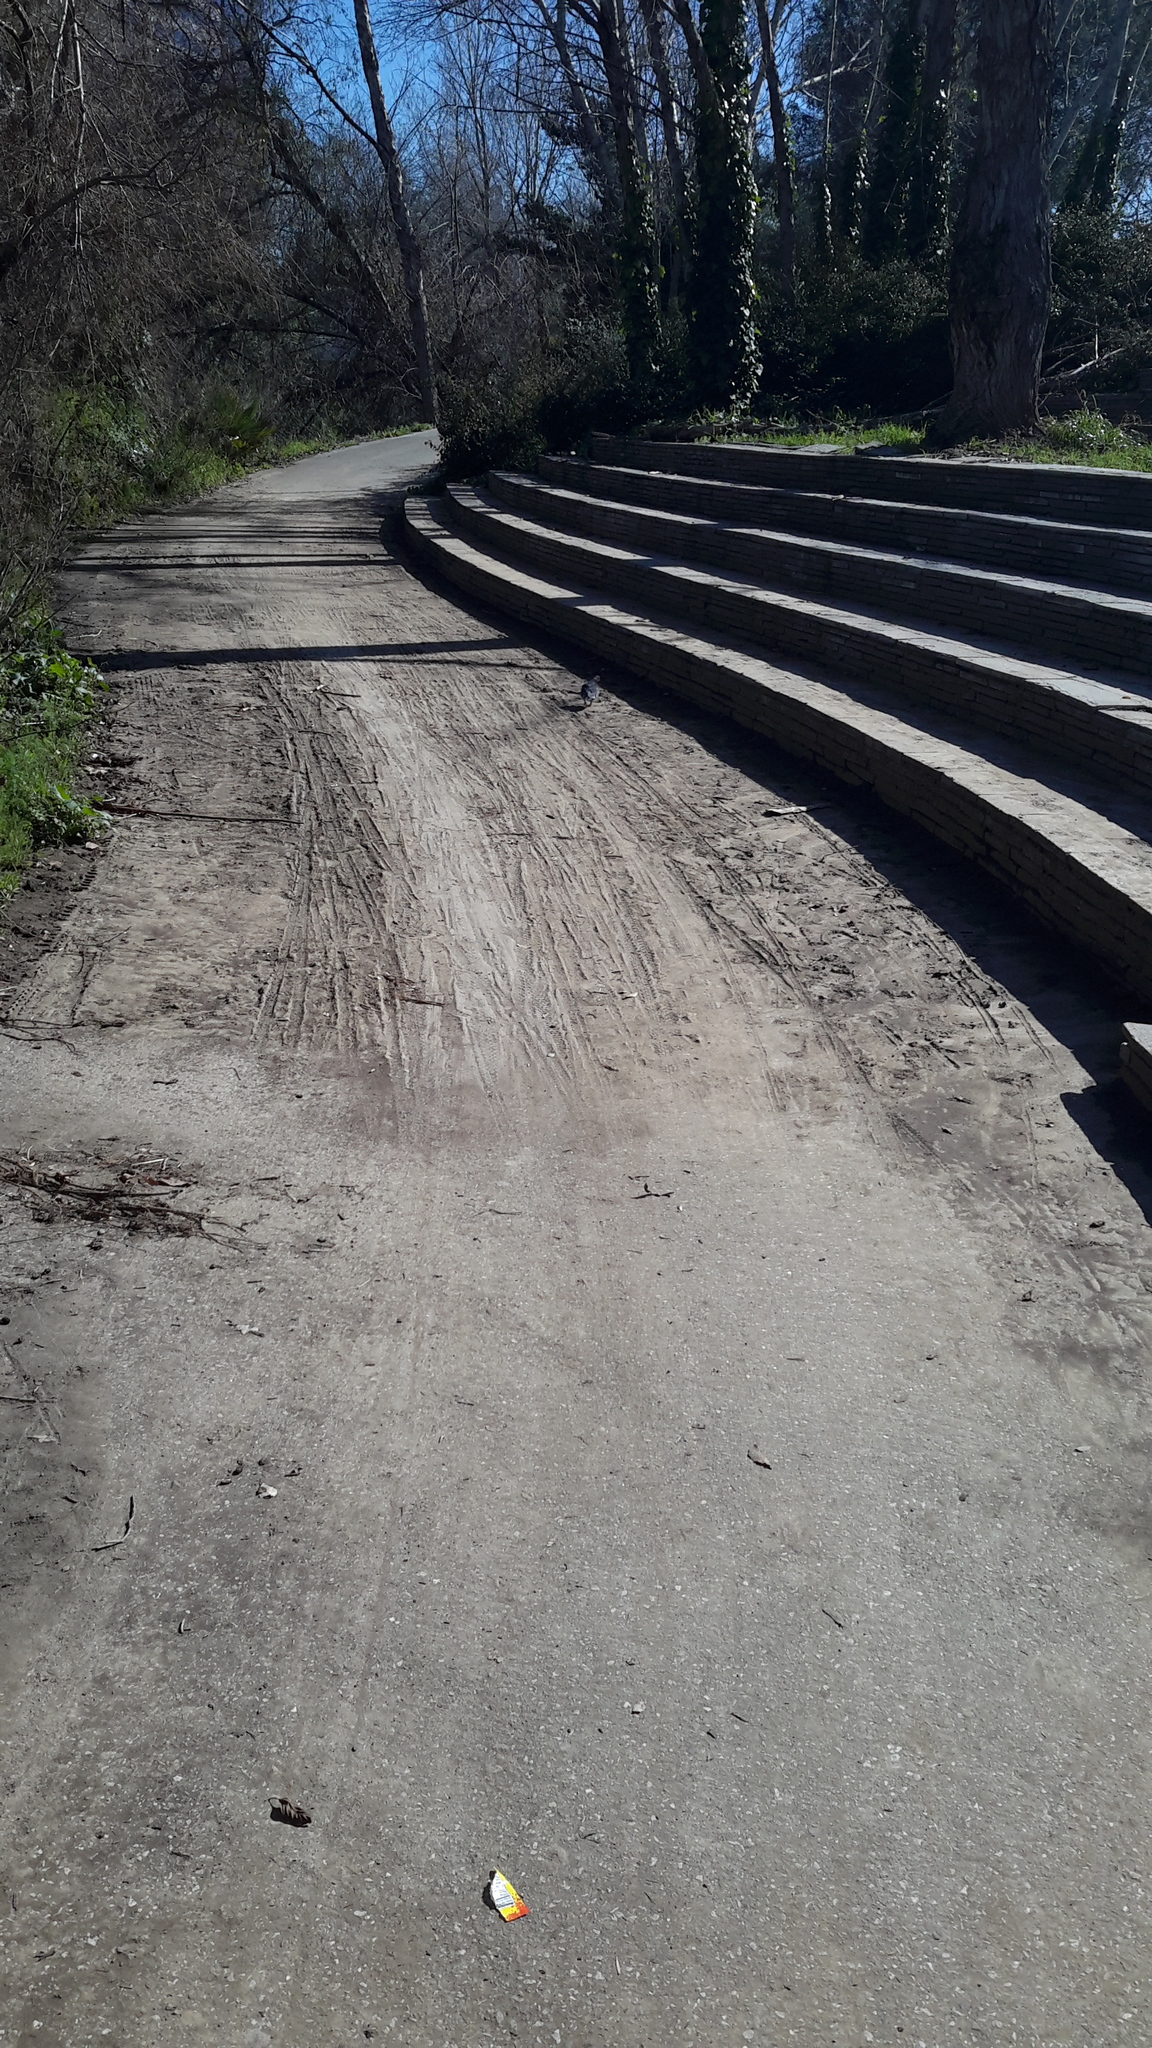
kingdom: Animalia
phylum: Chordata
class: Aves
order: Columbiformes
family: Columbidae
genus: Columba
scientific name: Columba livia
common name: Rock pigeon
